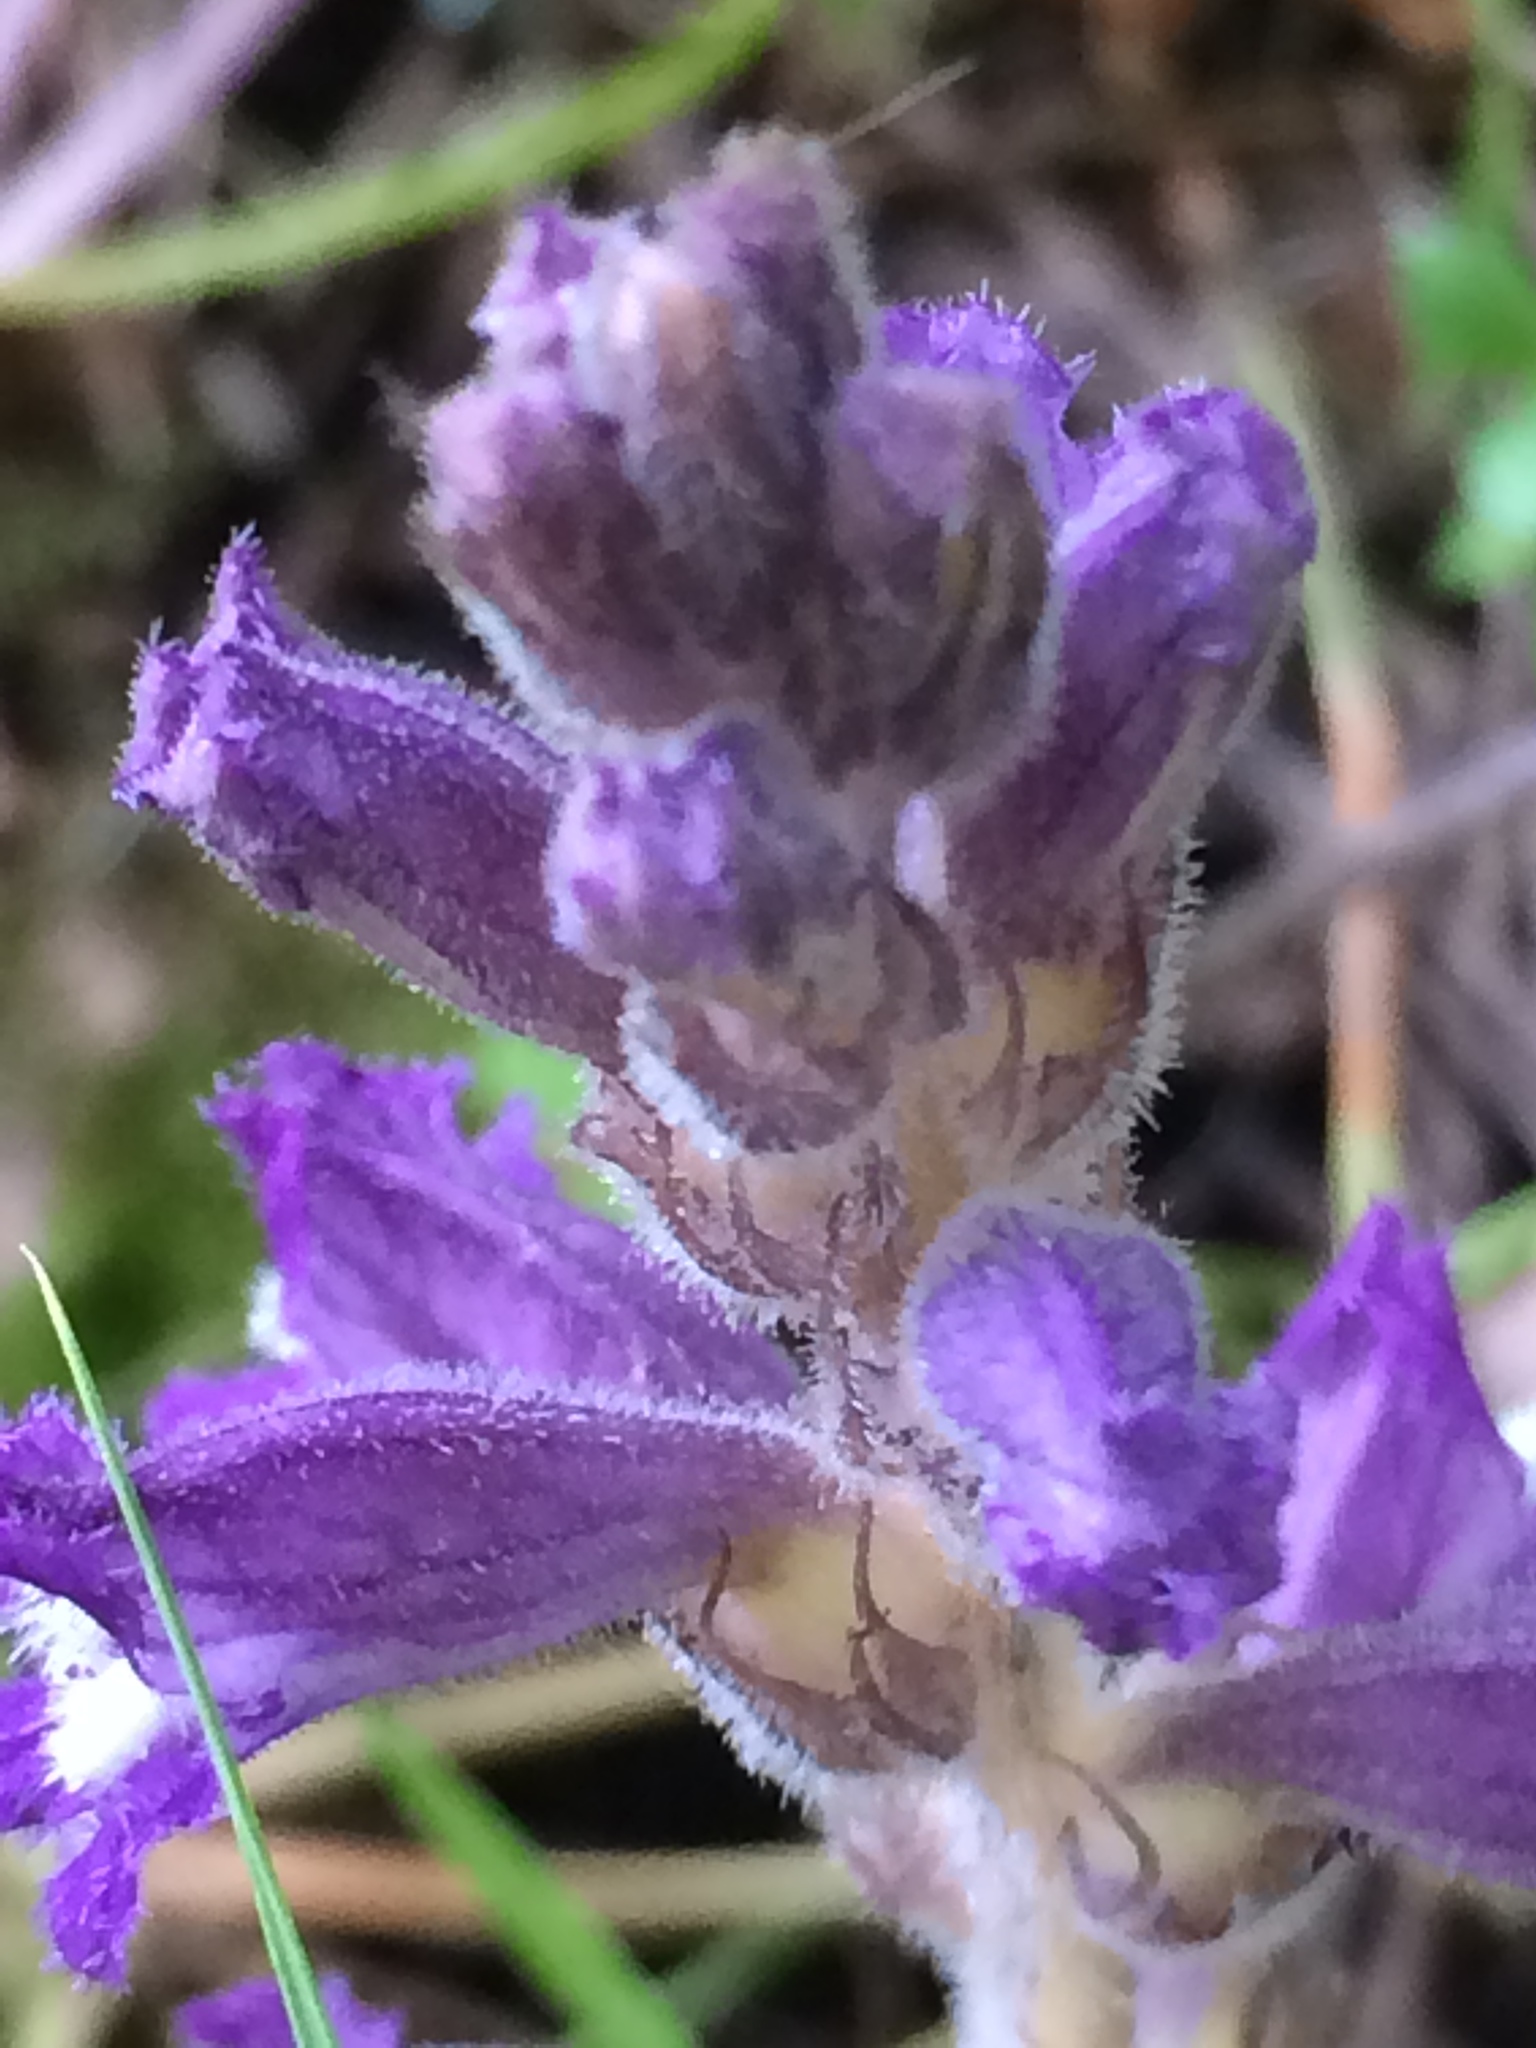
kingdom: Plantae
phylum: Tracheophyta
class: Magnoliopsida
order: Lamiales
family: Orobanchaceae
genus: Phelipanche
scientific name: Phelipanche mutelii
